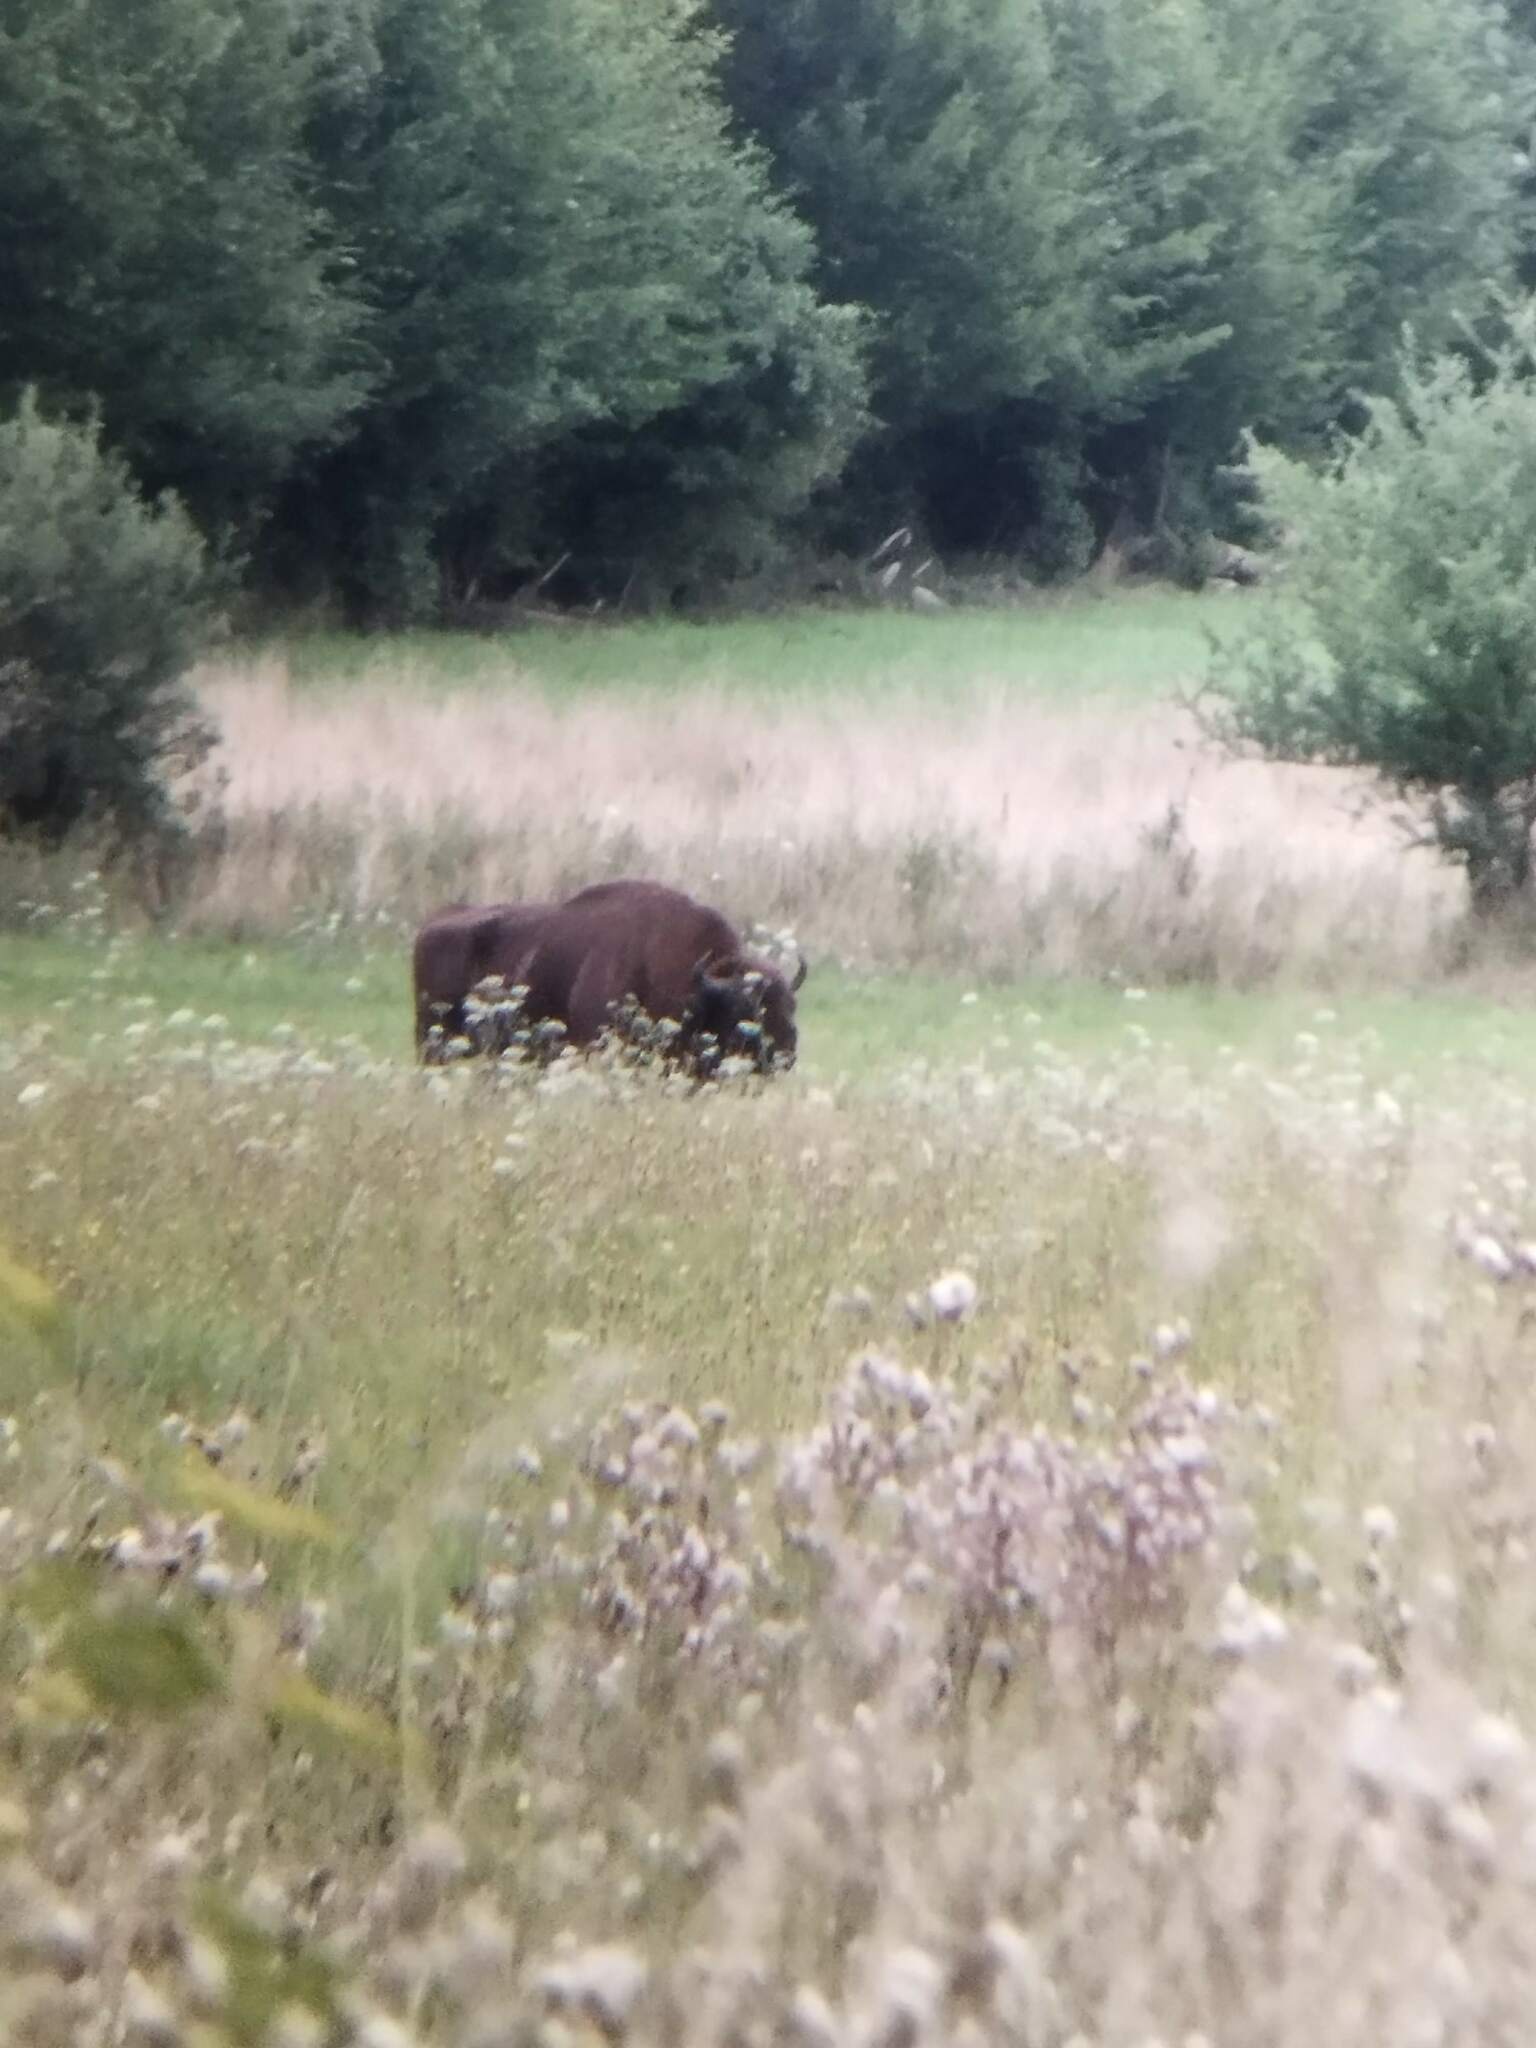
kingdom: Animalia
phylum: Chordata
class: Mammalia
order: Artiodactyla
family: Bovidae
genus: Bison
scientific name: Bison bonasus
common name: European bison
